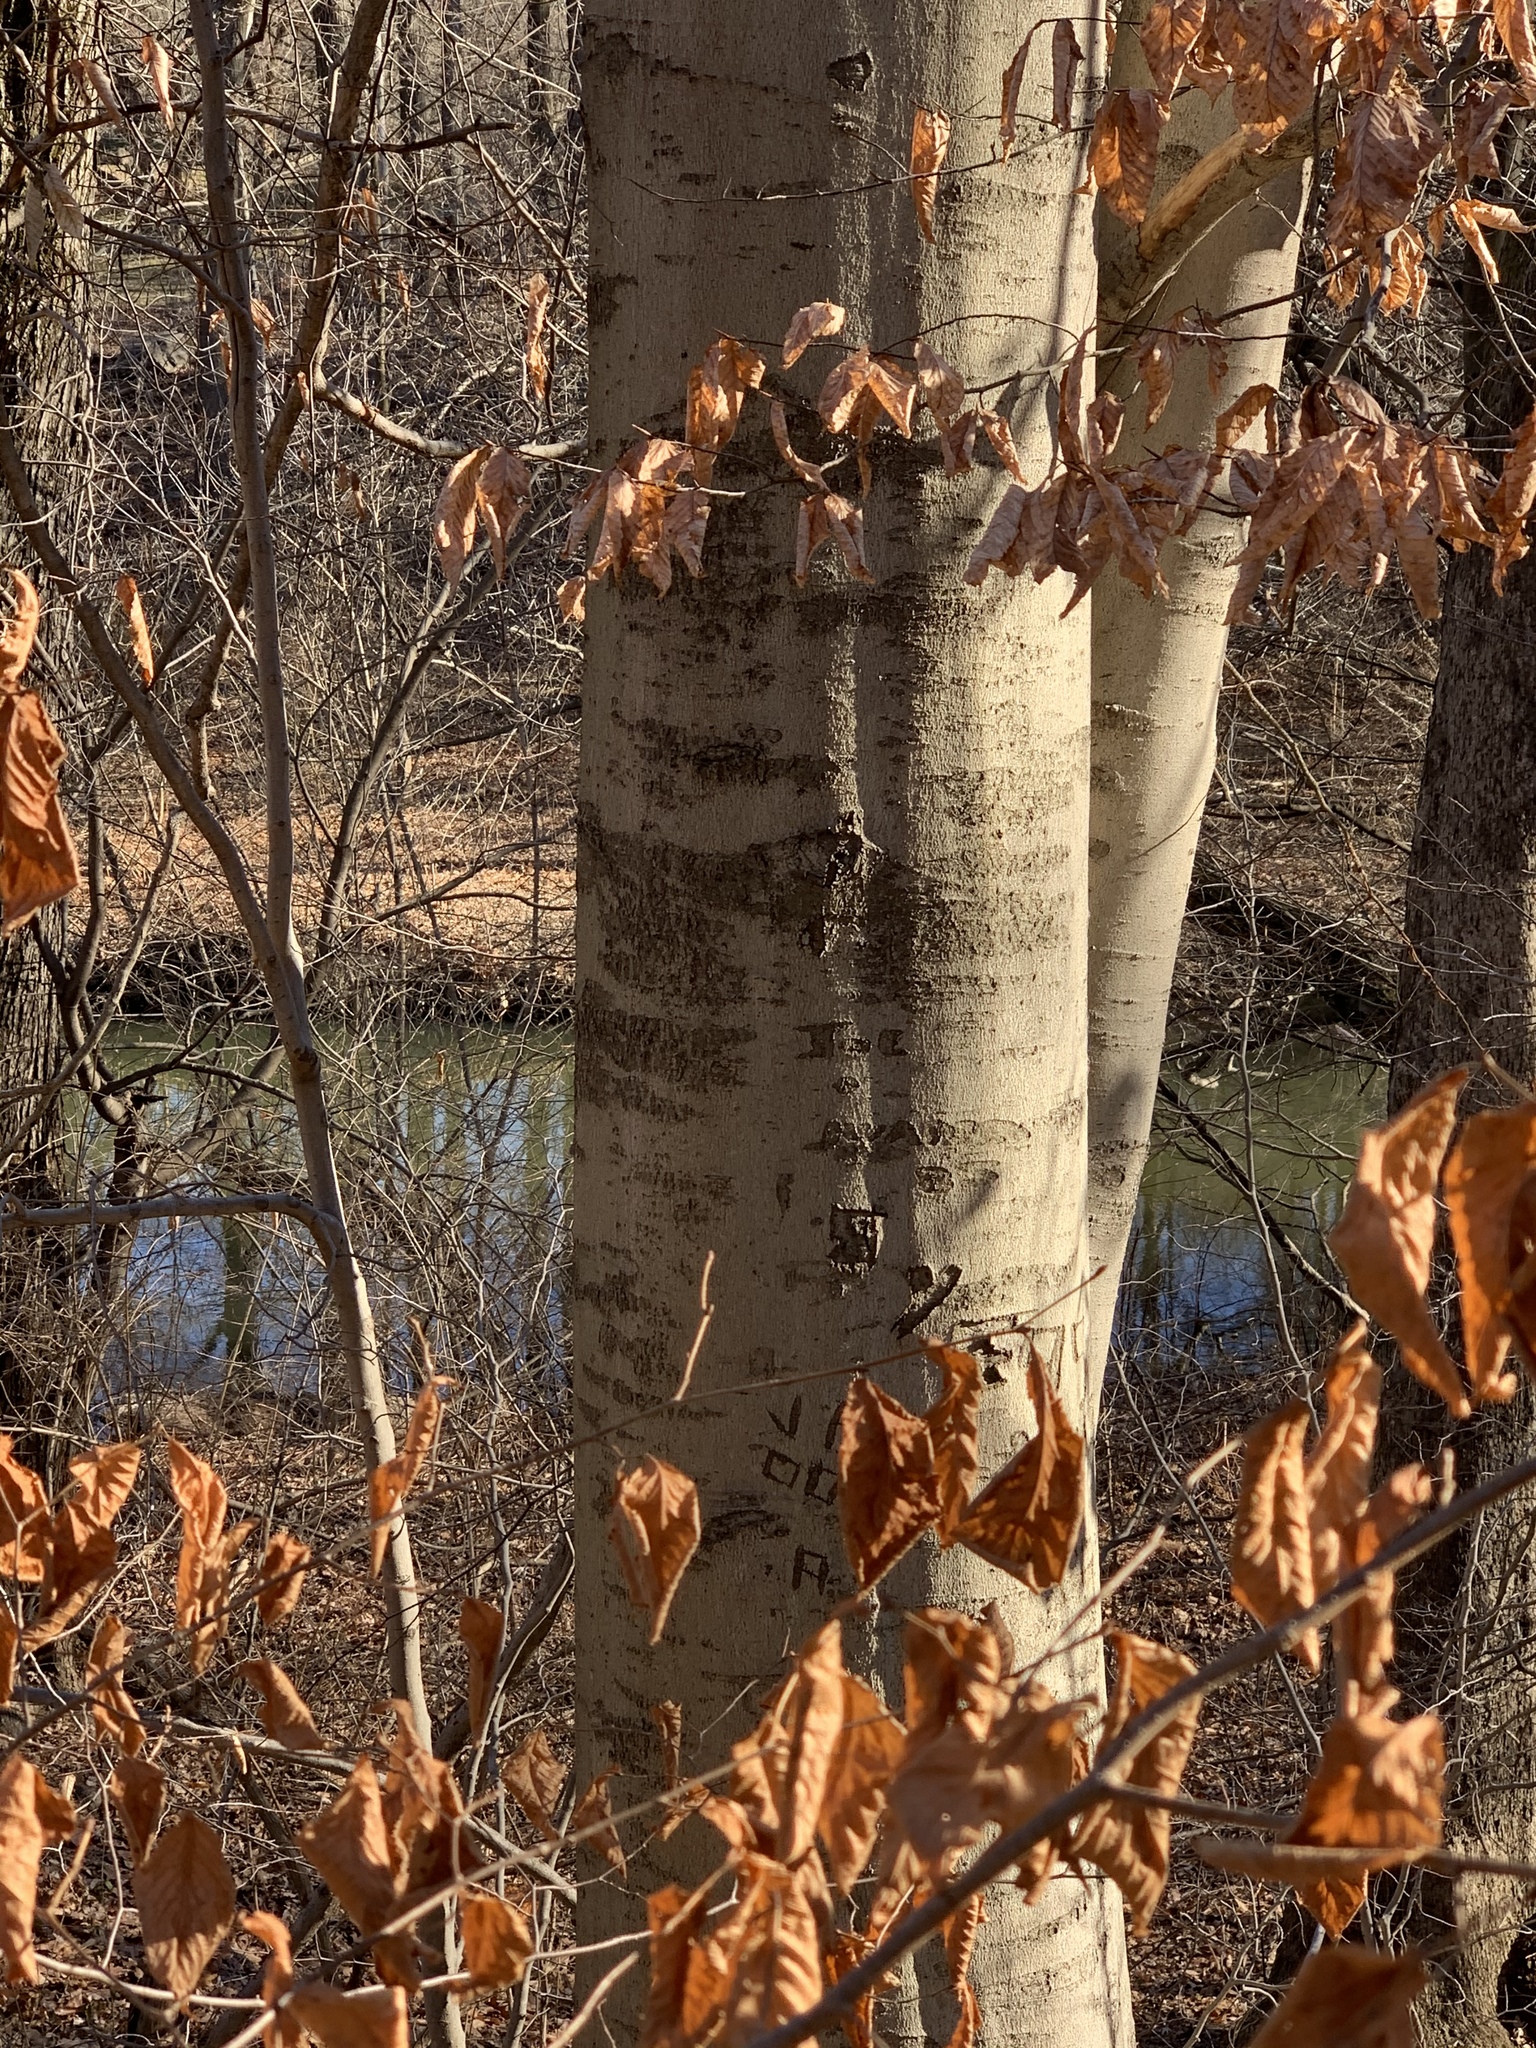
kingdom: Plantae
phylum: Tracheophyta
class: Magnoliopsida
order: Fagales
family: Fagaceae
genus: Fagus
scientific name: Fagus grandifolia
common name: American beech
